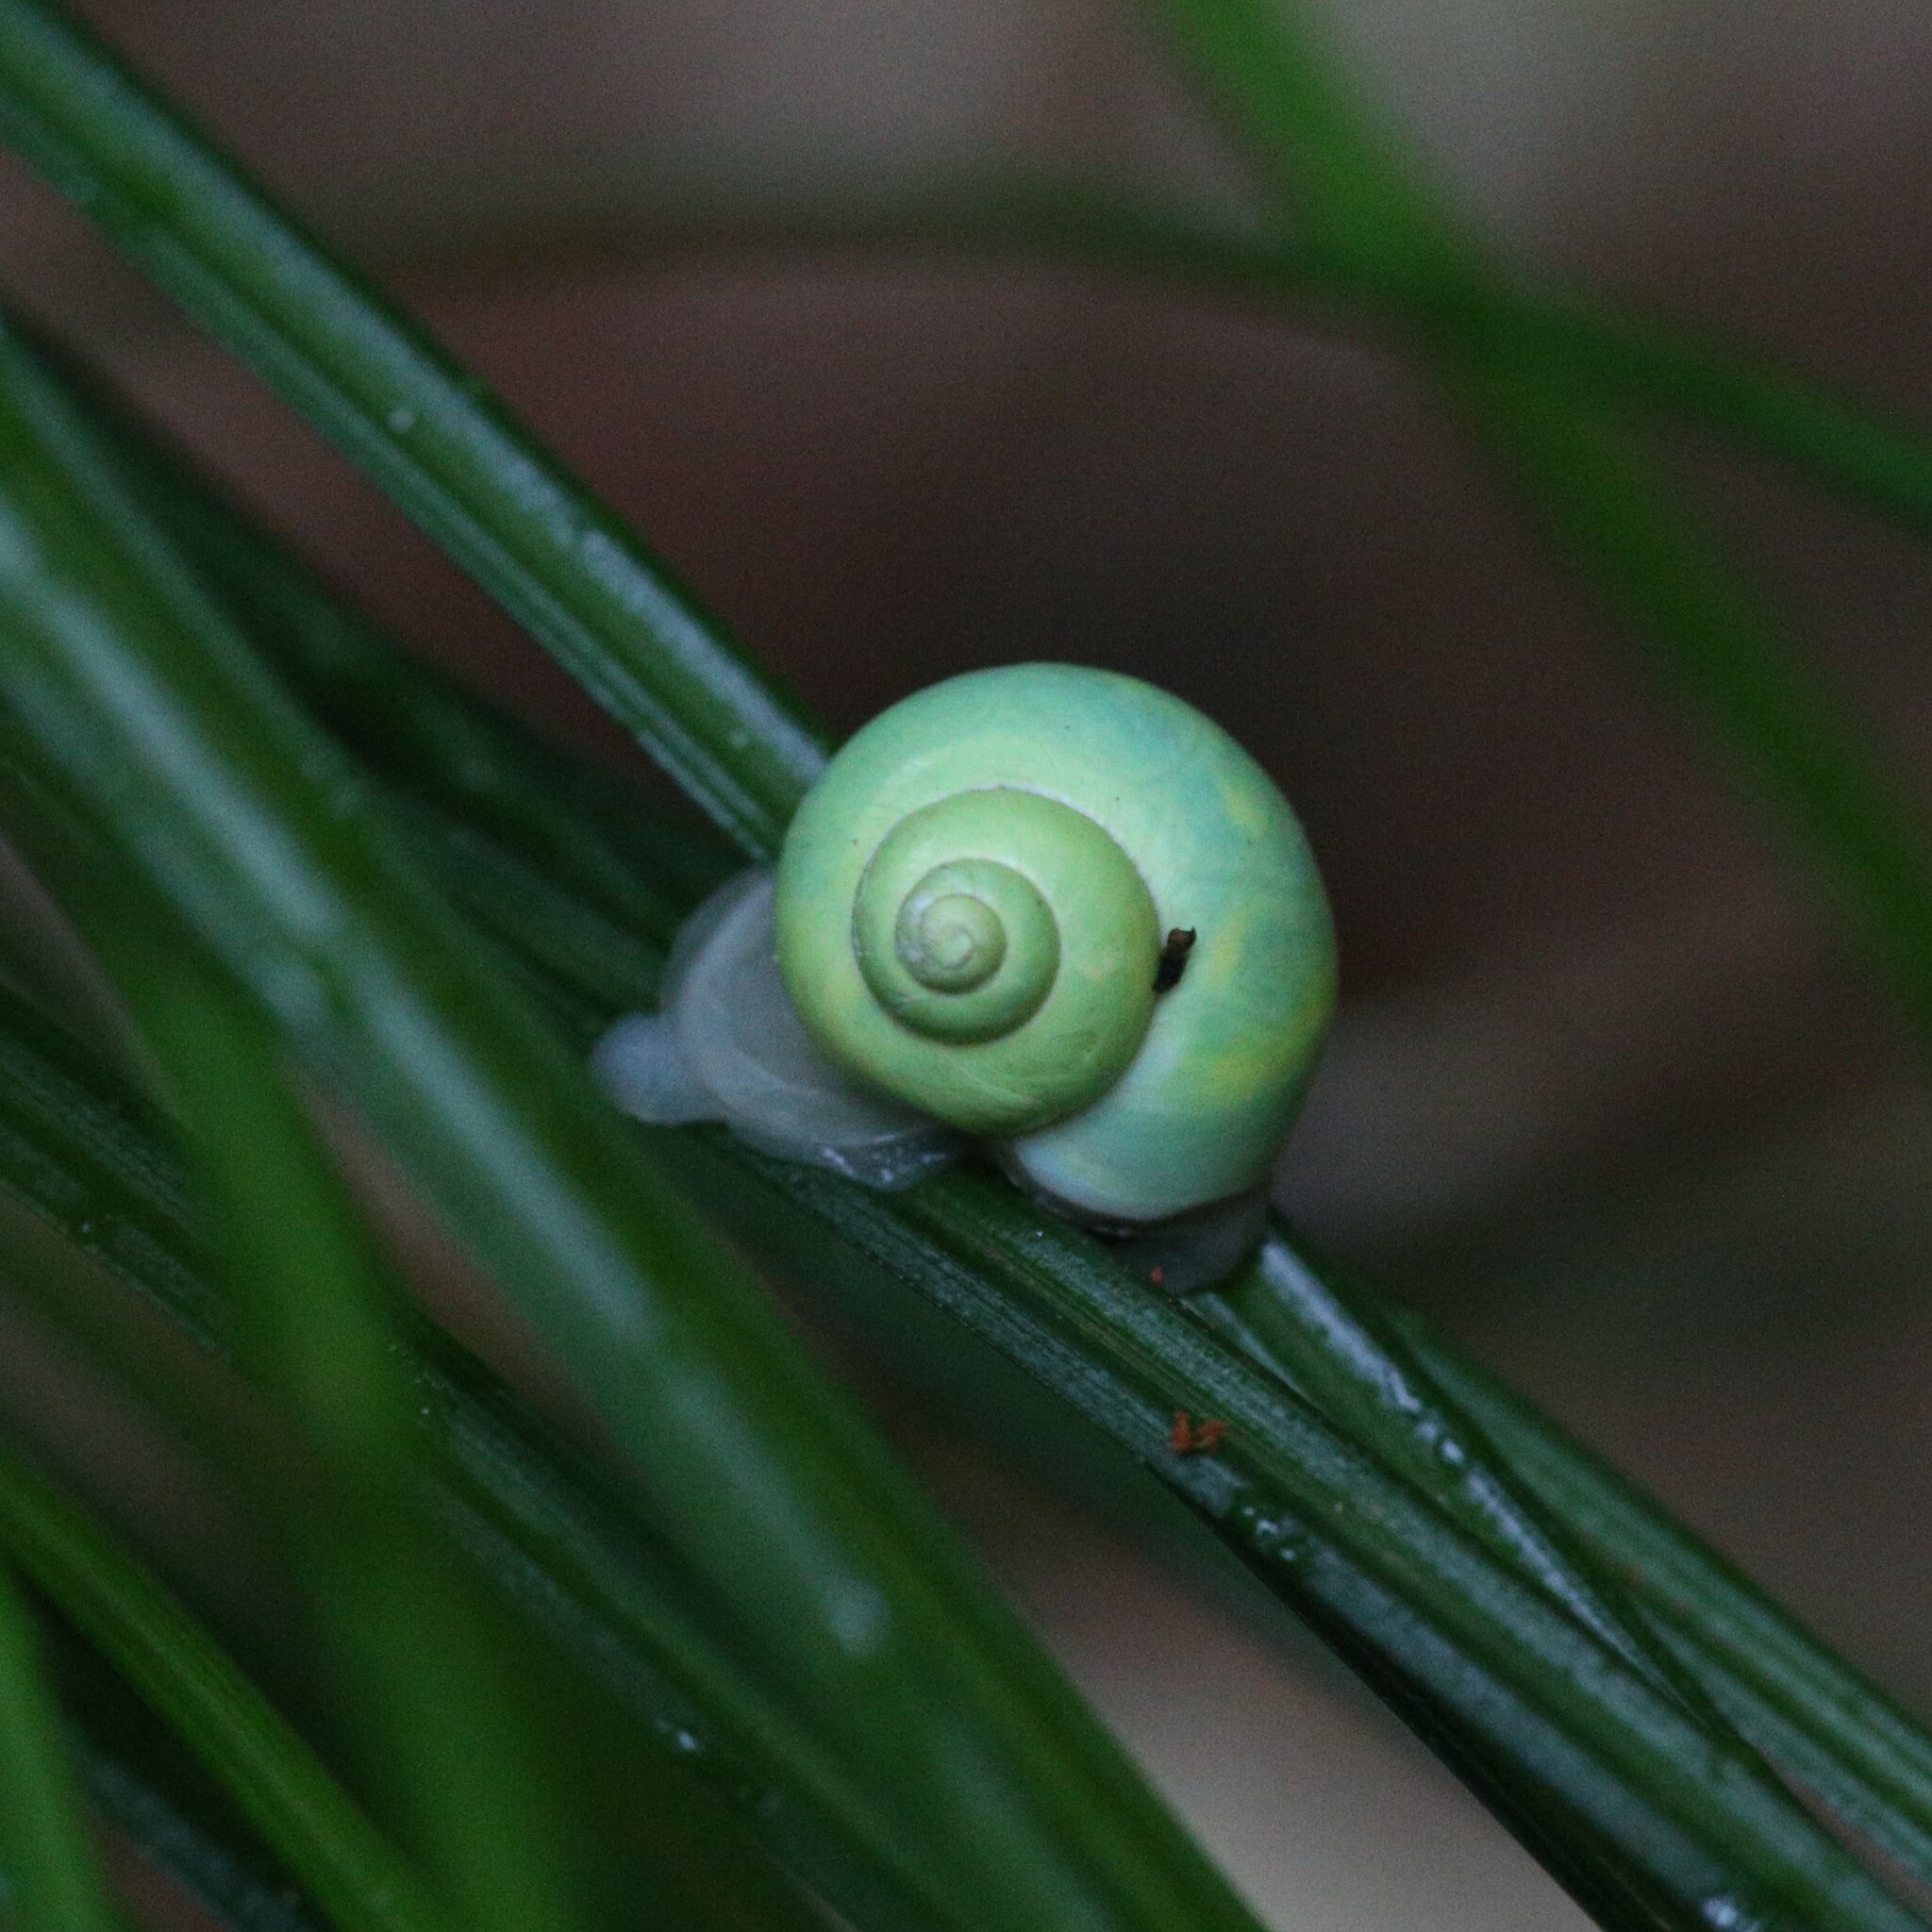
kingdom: Animalia
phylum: Mollusca
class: Gastropoda
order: Architaenioglossa
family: Cyclophoridae
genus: Leptopoma
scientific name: Leptopoma nitidum
